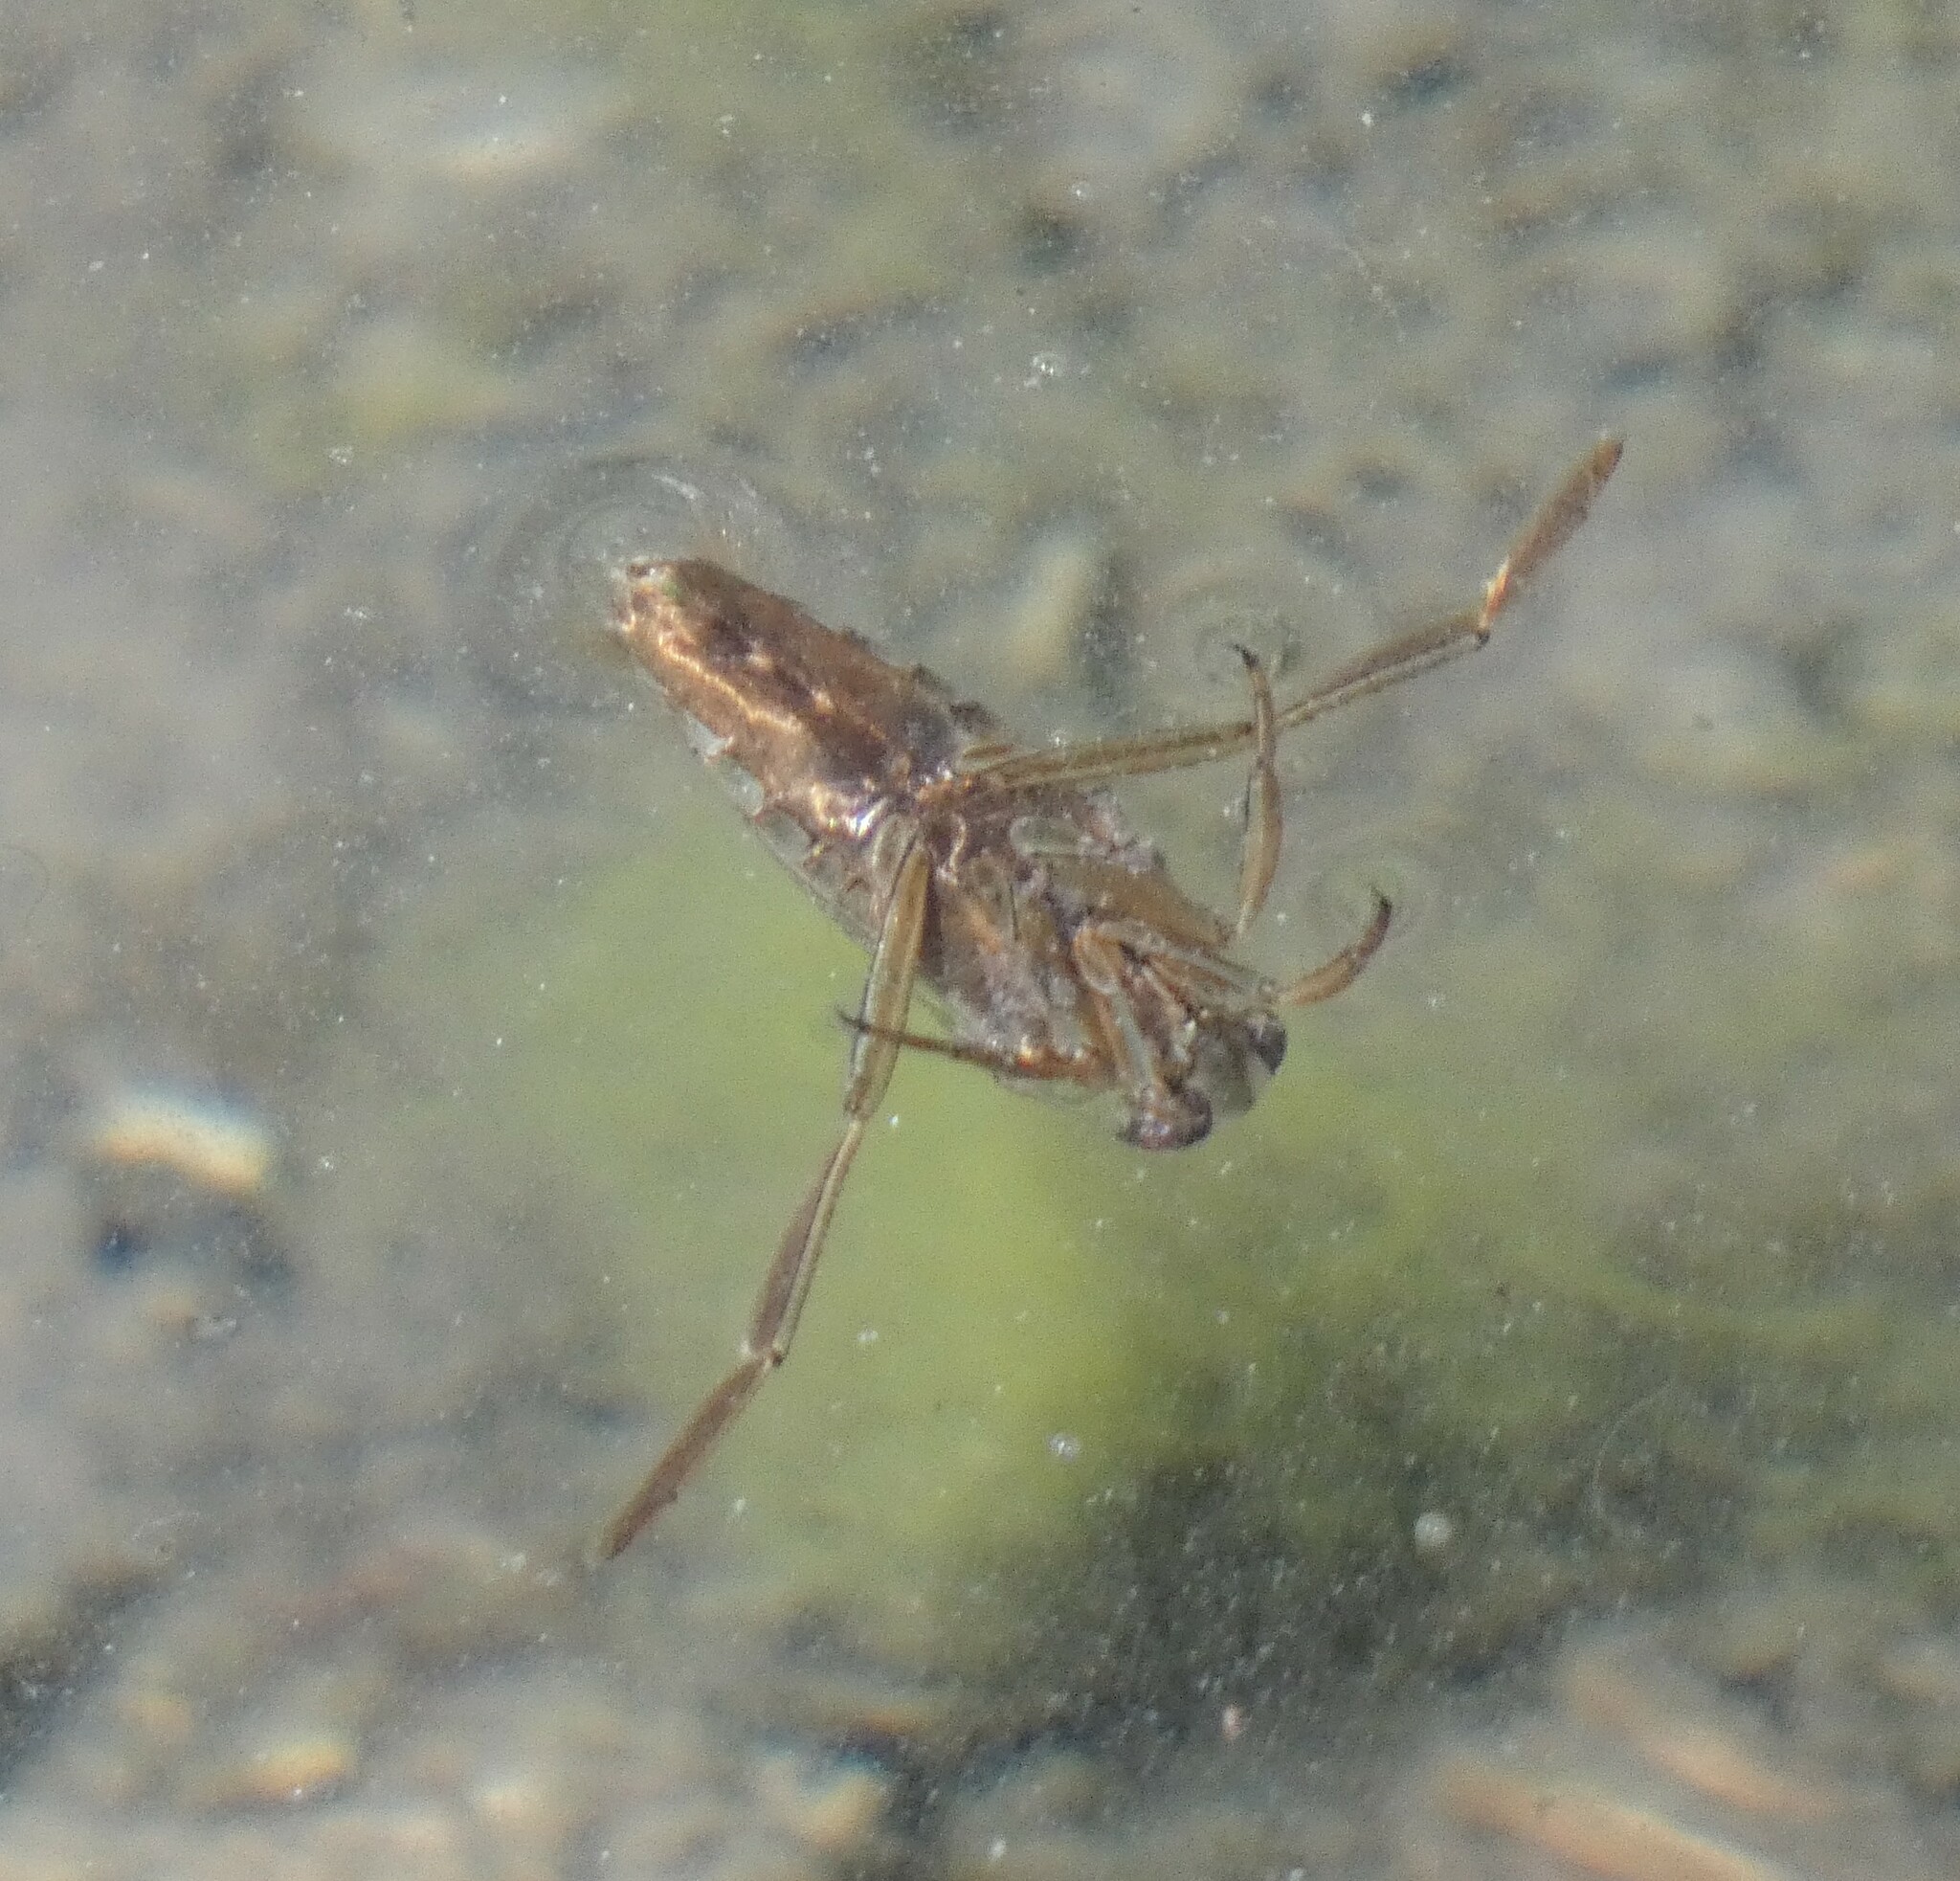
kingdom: Animalia
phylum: Arthropoda
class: Insecta
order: Hemiptera
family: Notonectidae
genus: Notonecta
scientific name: Notonecta
